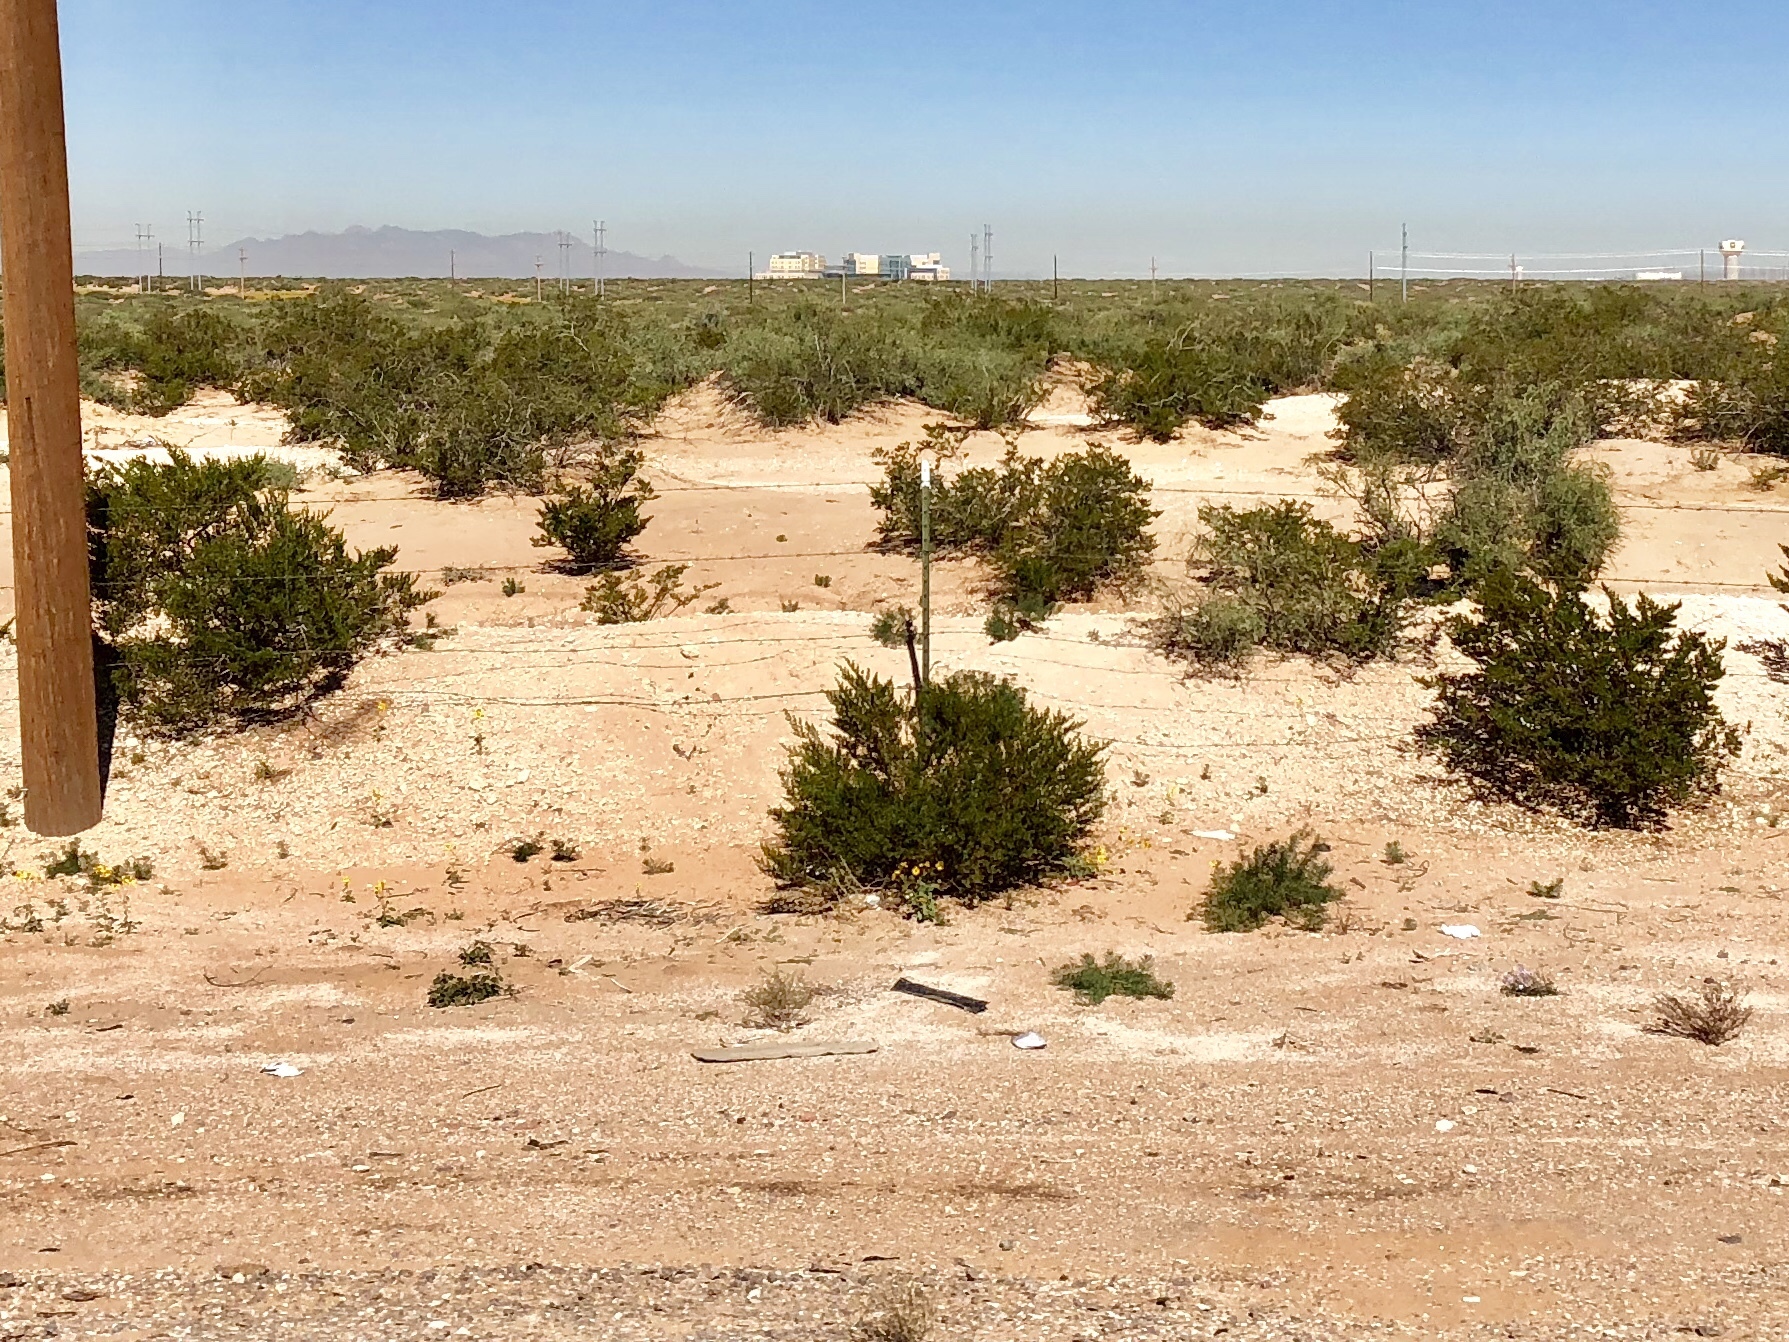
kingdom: Plantae
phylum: Tracheophyta
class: Magnoliopsida
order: Zygophyllales
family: Zygophyllaceae
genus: Larrea
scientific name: Larrea tridentata
